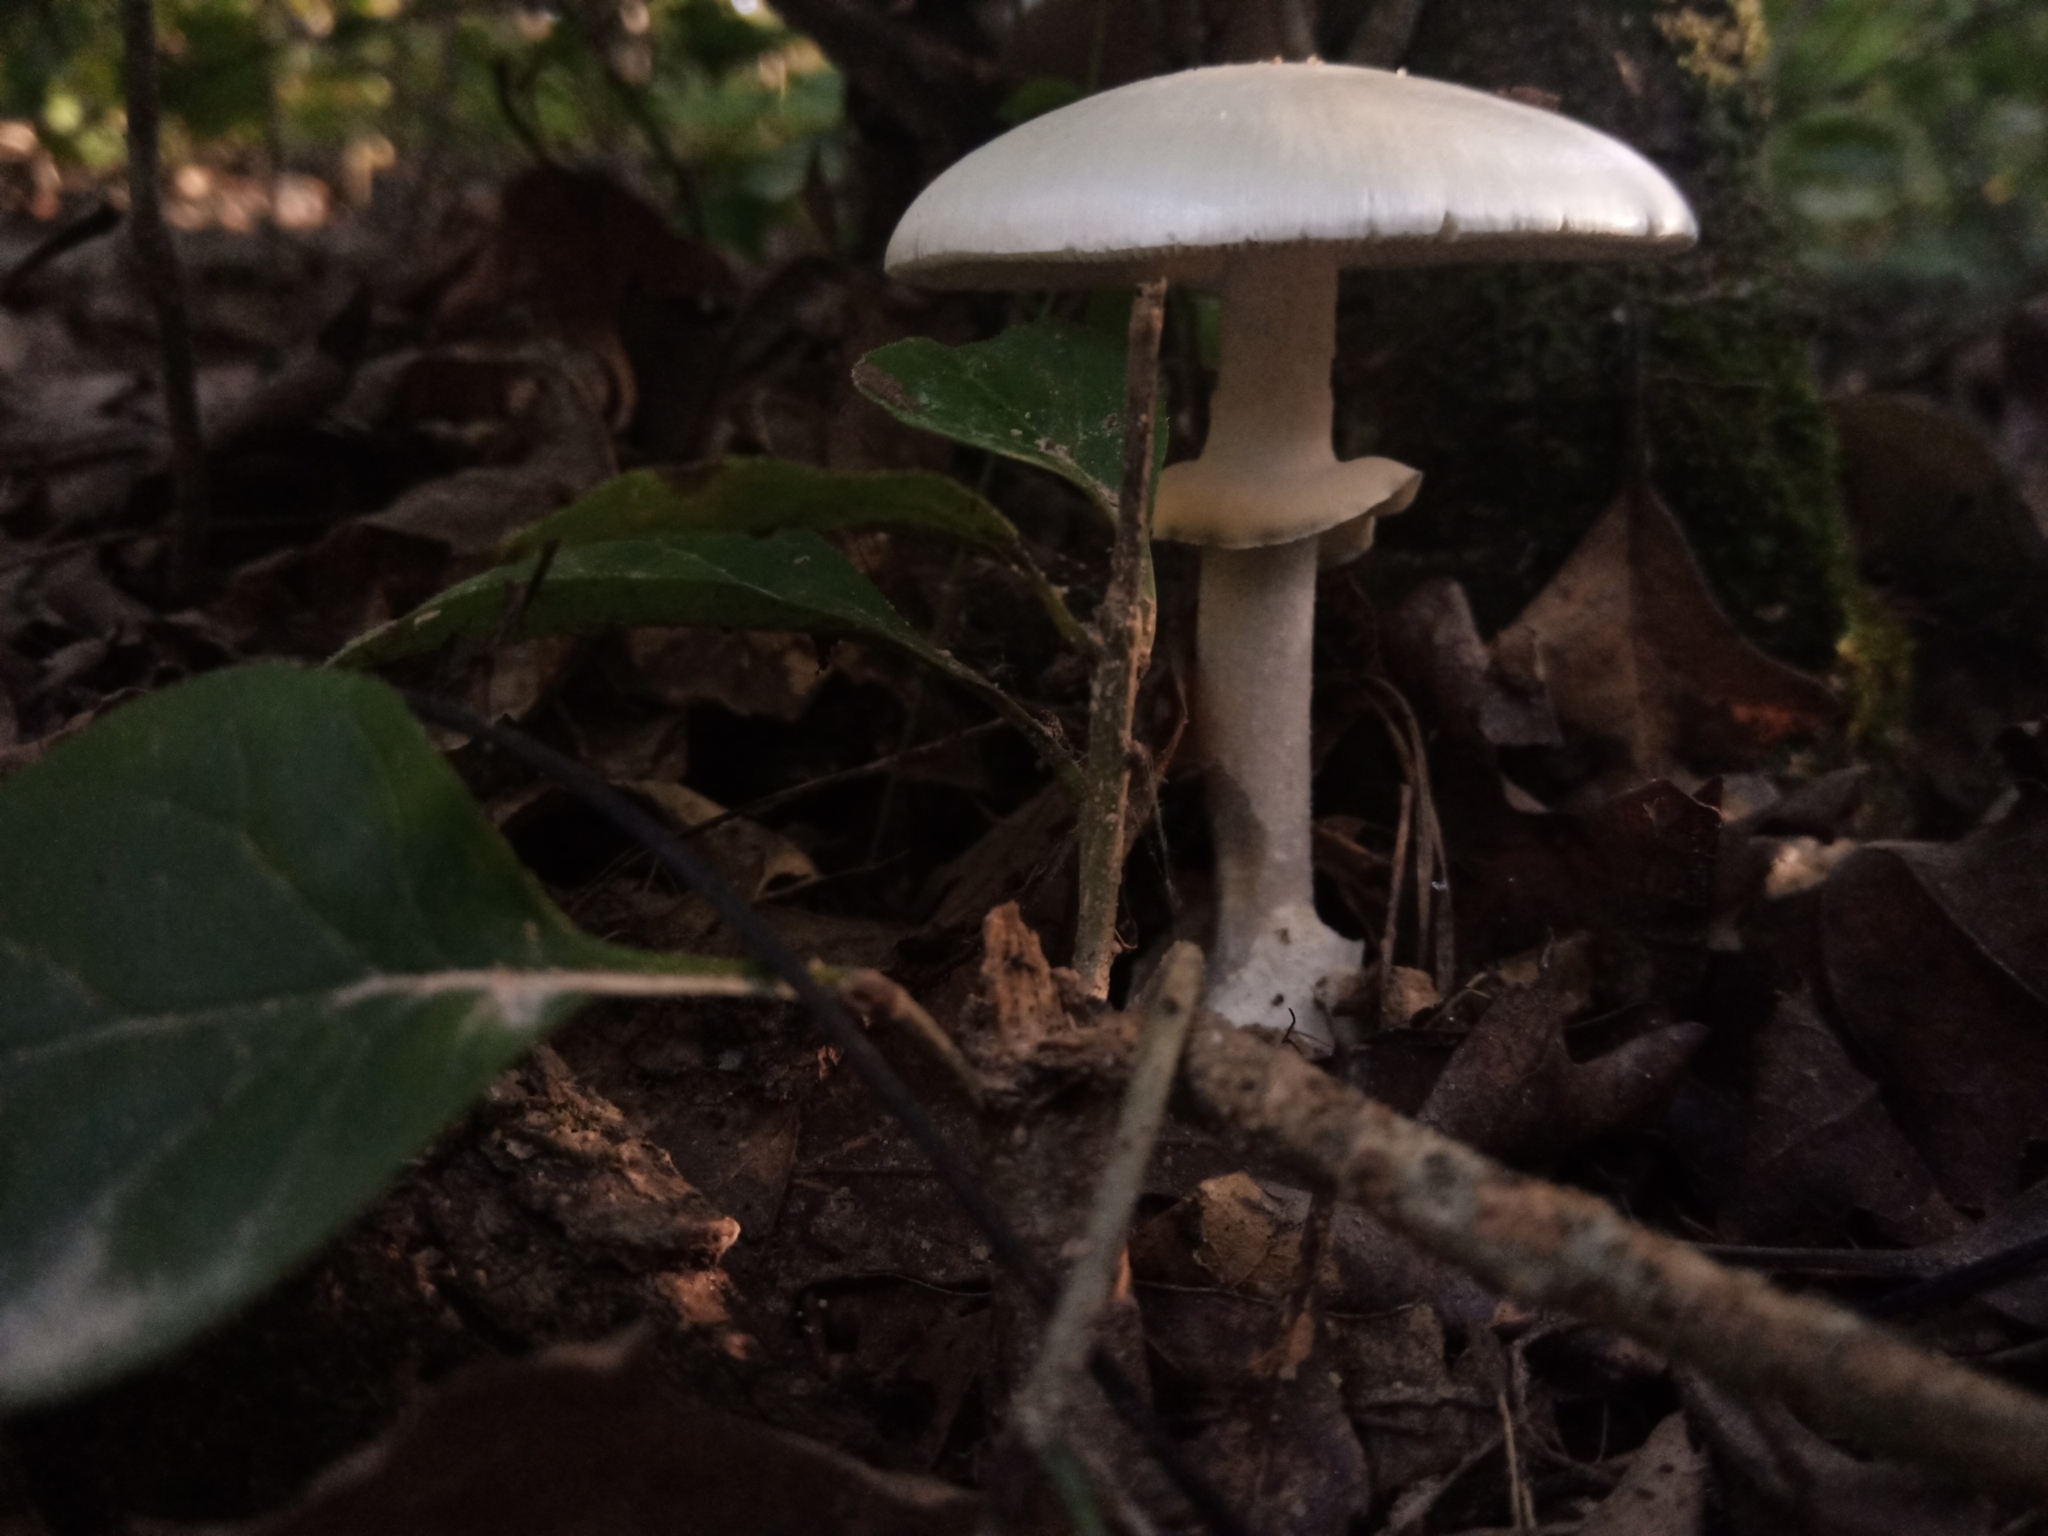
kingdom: Fungi
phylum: Basidiomycota
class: Agaricomycetes
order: Agaricales
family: Amanitaceae
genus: Amanita
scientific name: Amanita bisporigera
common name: Eastern north american destroying angel
